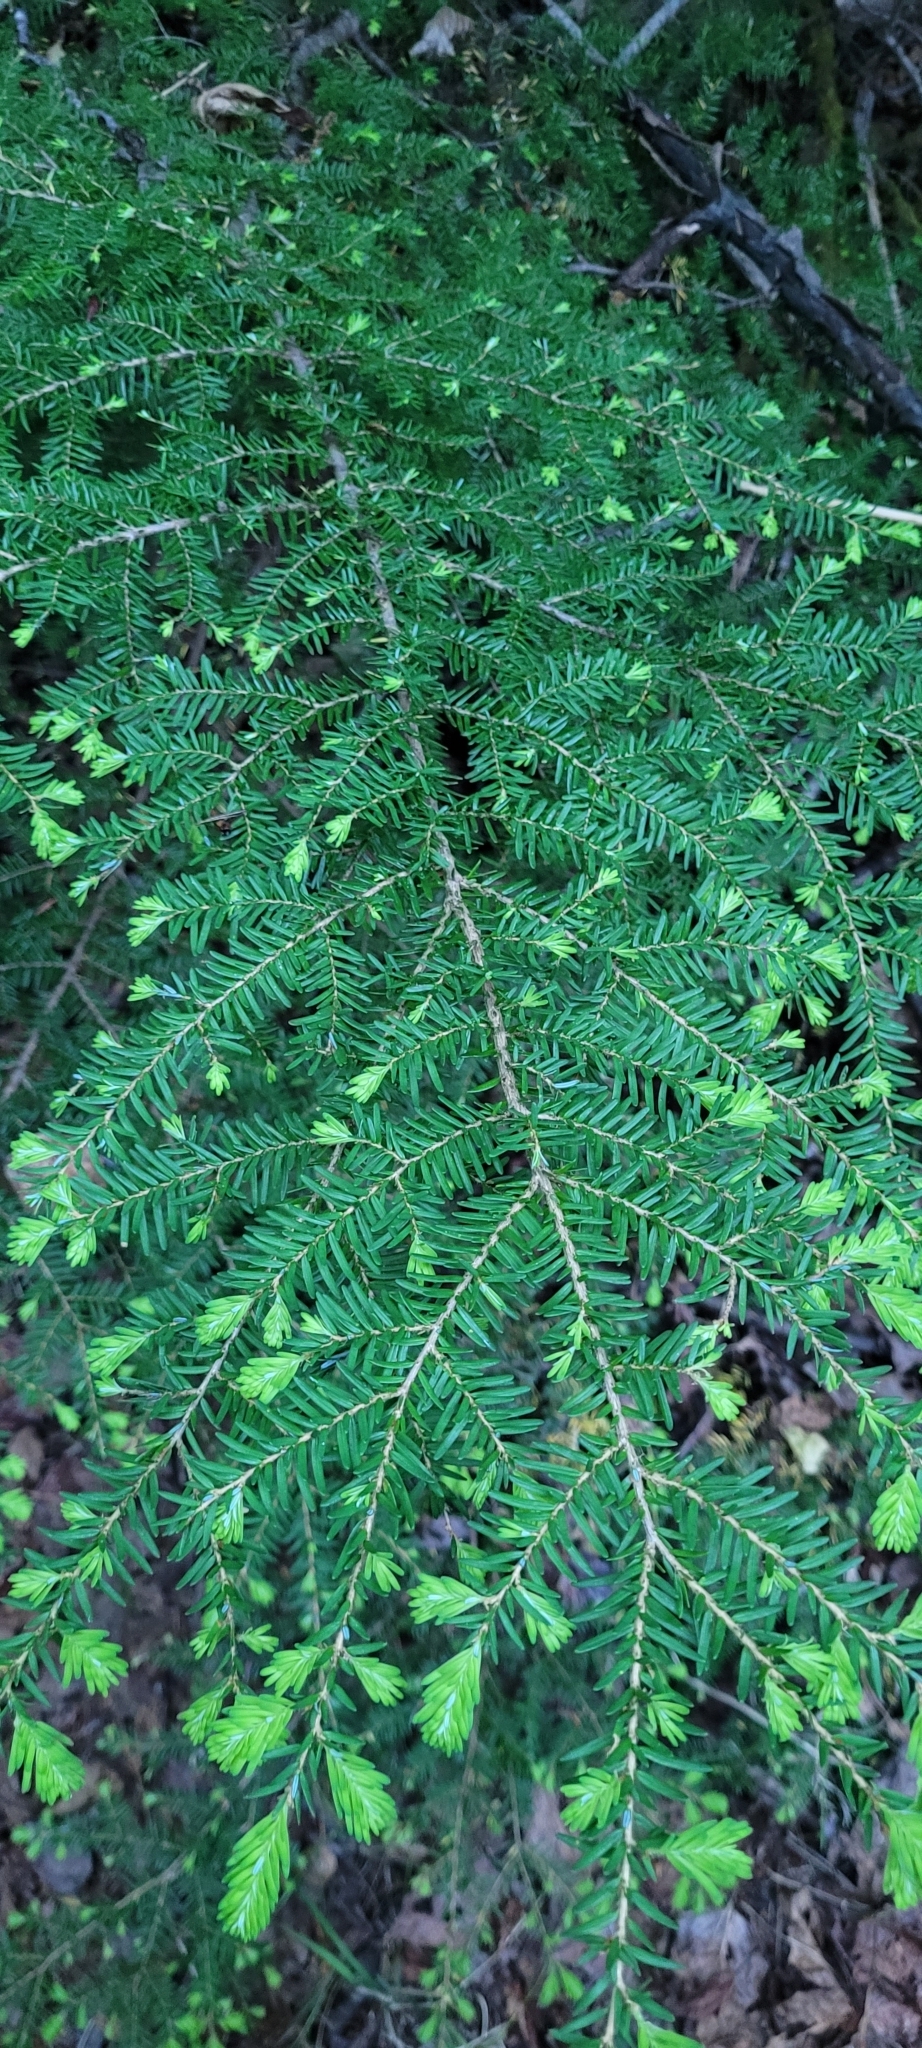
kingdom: Plantae
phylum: Tracheophyta
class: Pinopsida
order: Pinales
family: Pinaceae
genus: Tsuga
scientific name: Tsuga heterophylla
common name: Western hemlock
